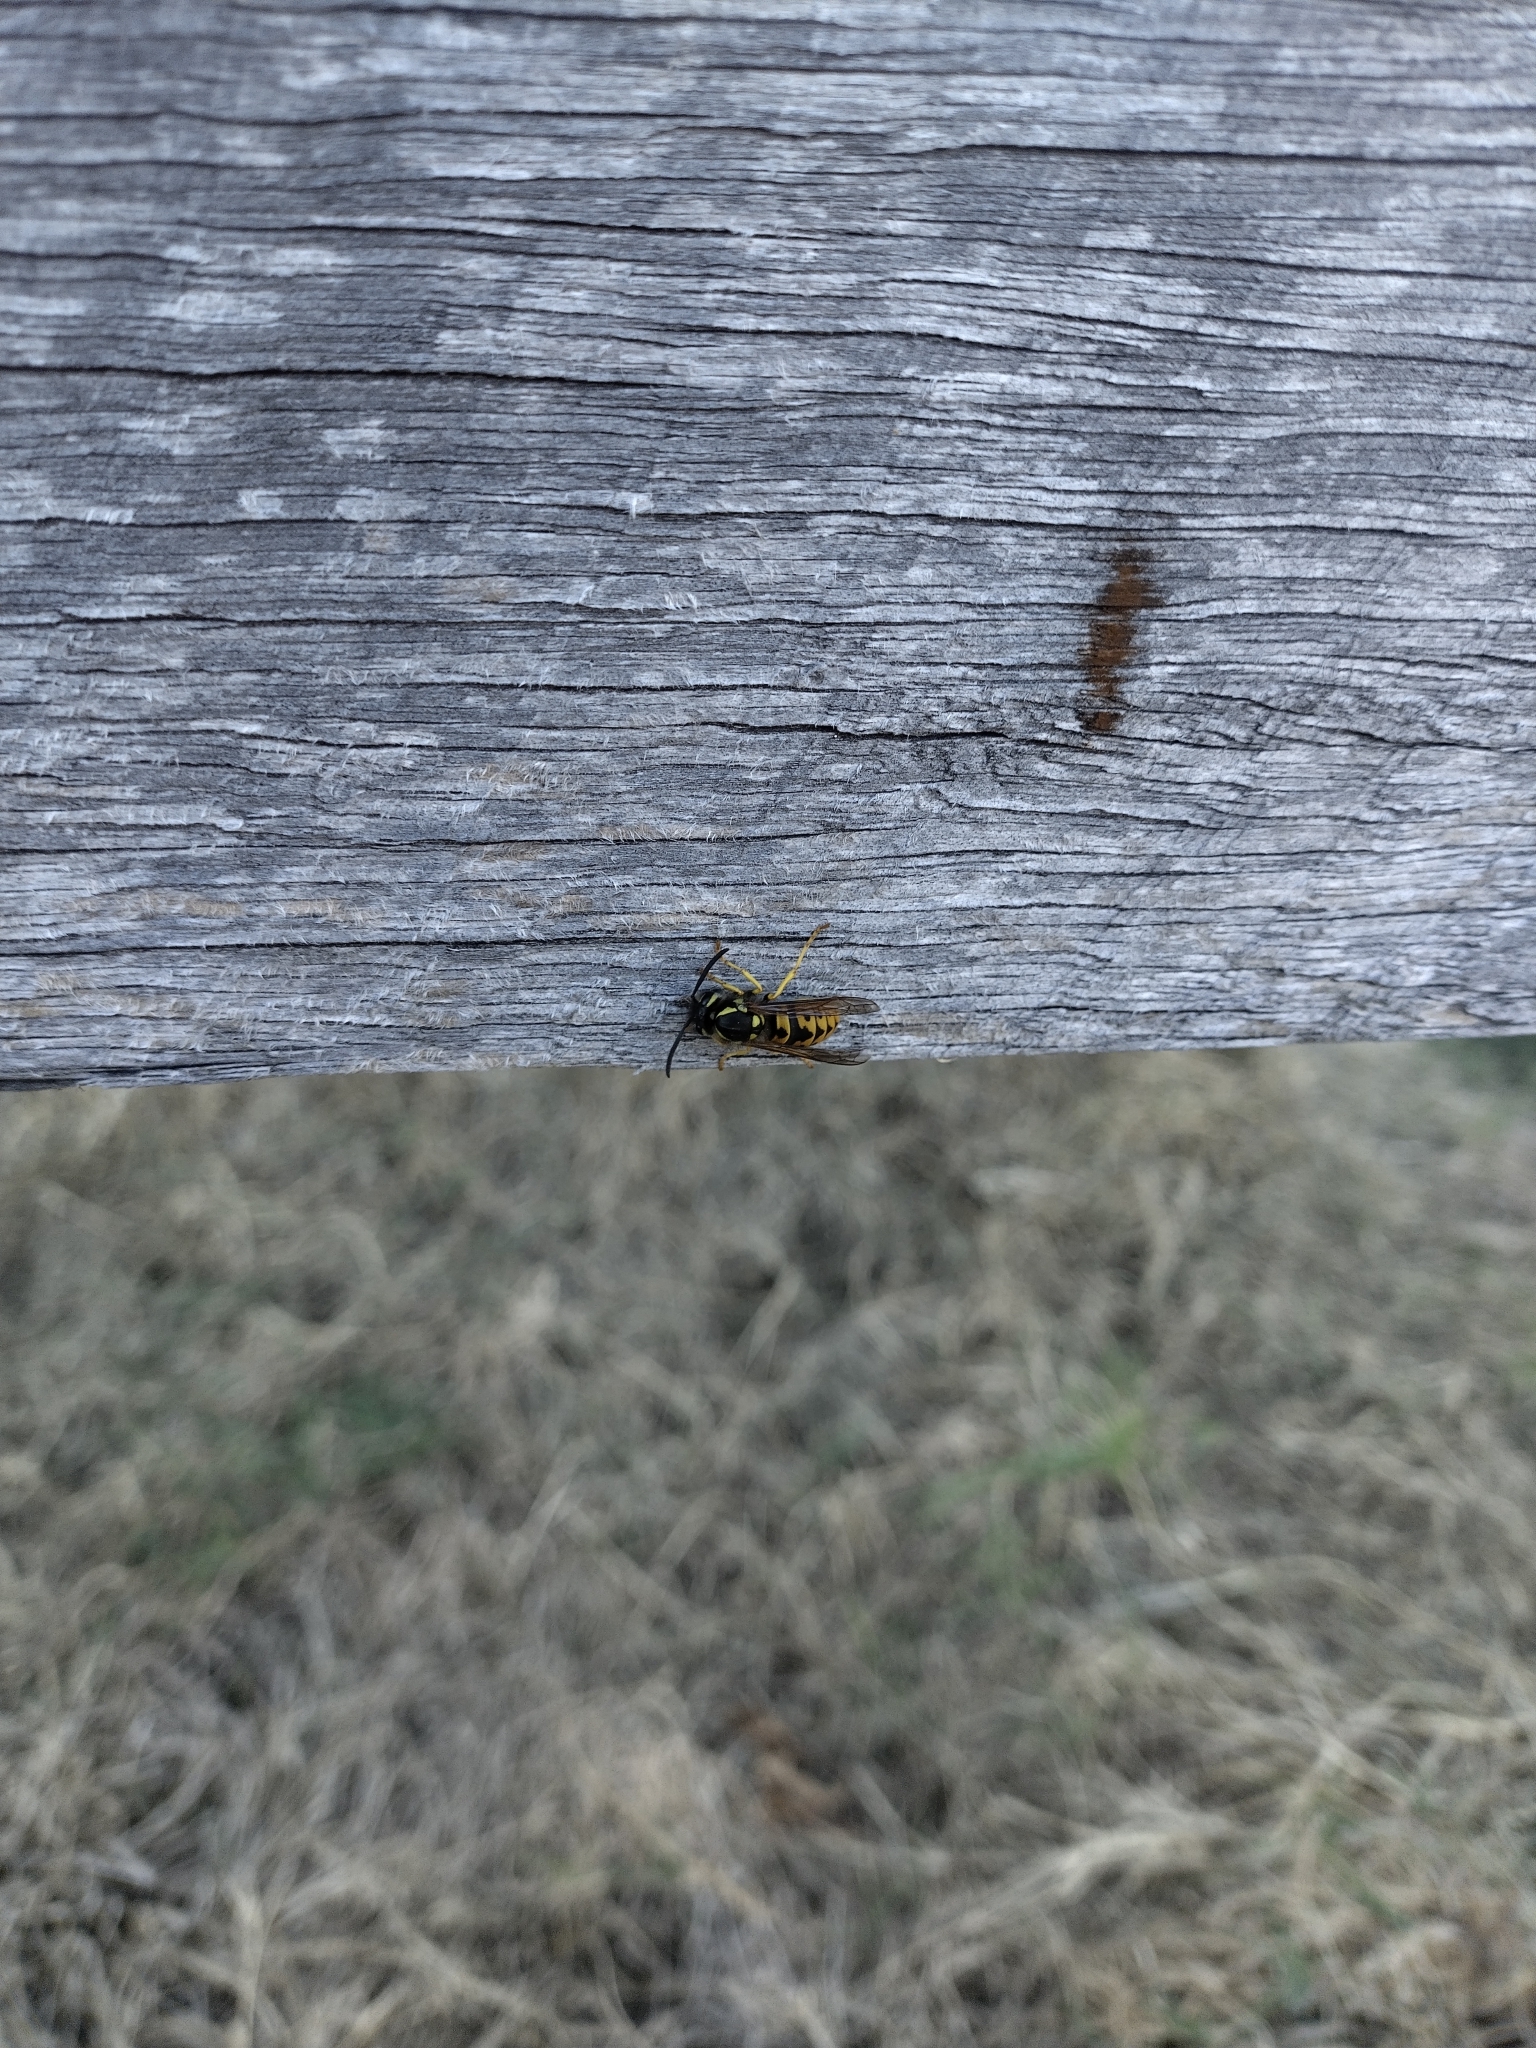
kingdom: Animalia
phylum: Arthropoda
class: Insecta
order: Hymenoptera
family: Vespidae
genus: Vespula
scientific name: Vespula germanica
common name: German wasp
